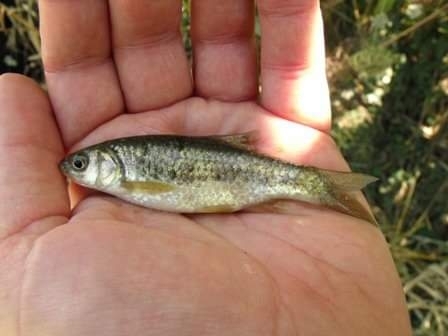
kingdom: Animalia
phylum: Chordata
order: Cypriniformes
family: Cyprinidae
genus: Sarmarutilus
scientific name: Sarmarutilus rubilio
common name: Rovella
